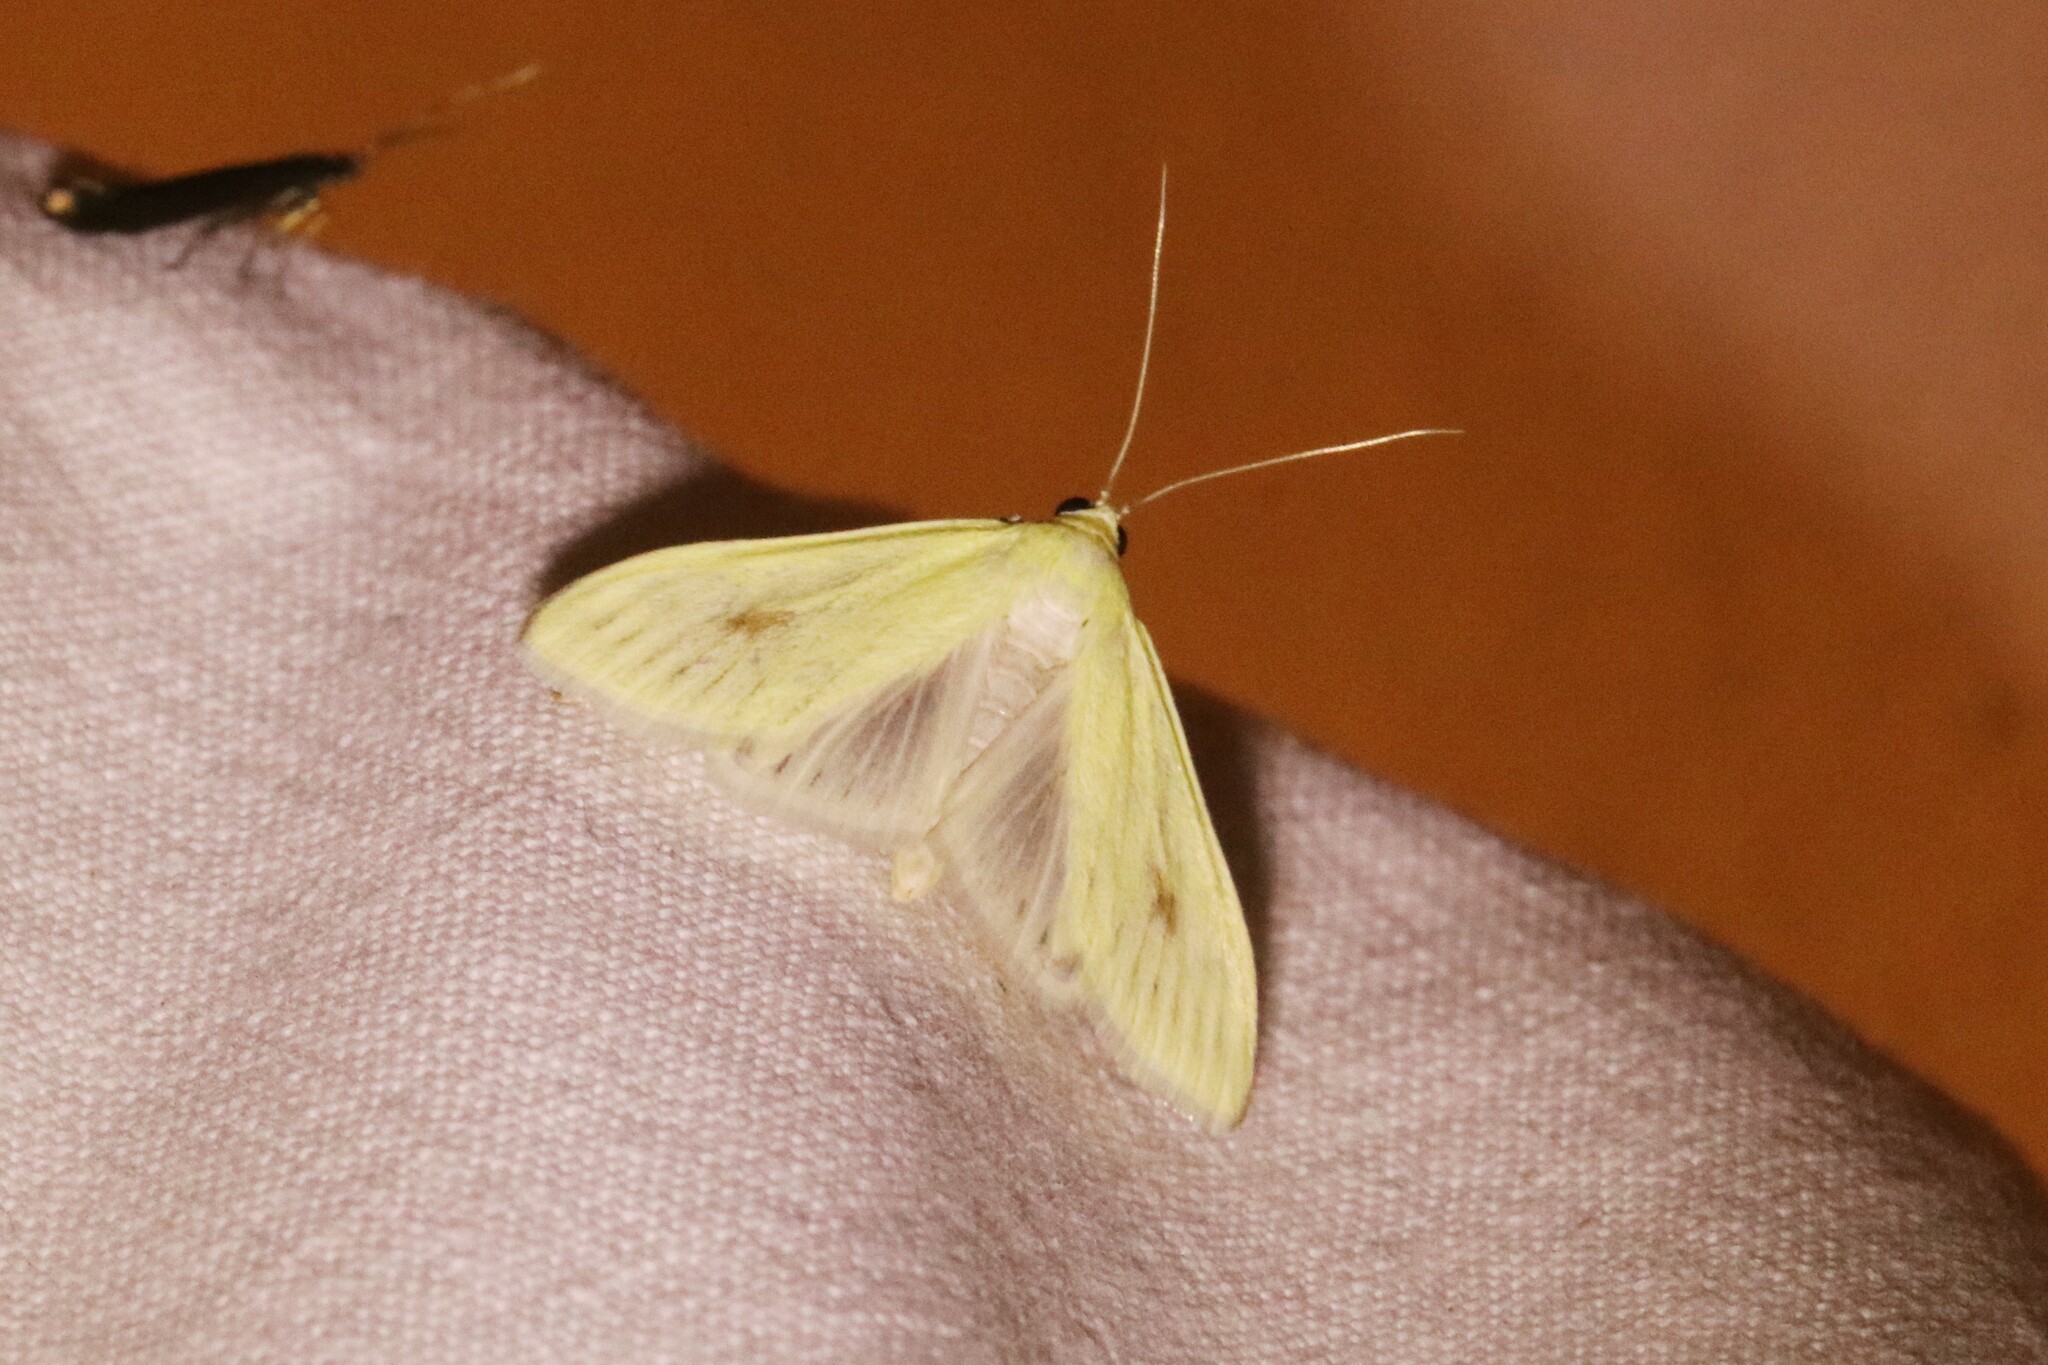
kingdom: Animalia
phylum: Arthropoda
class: Insecta
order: Lepidoptera
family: Crambidae
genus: Sitochroa
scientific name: Sitochroa palealis
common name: Greenish-yellow sitochroa moth
